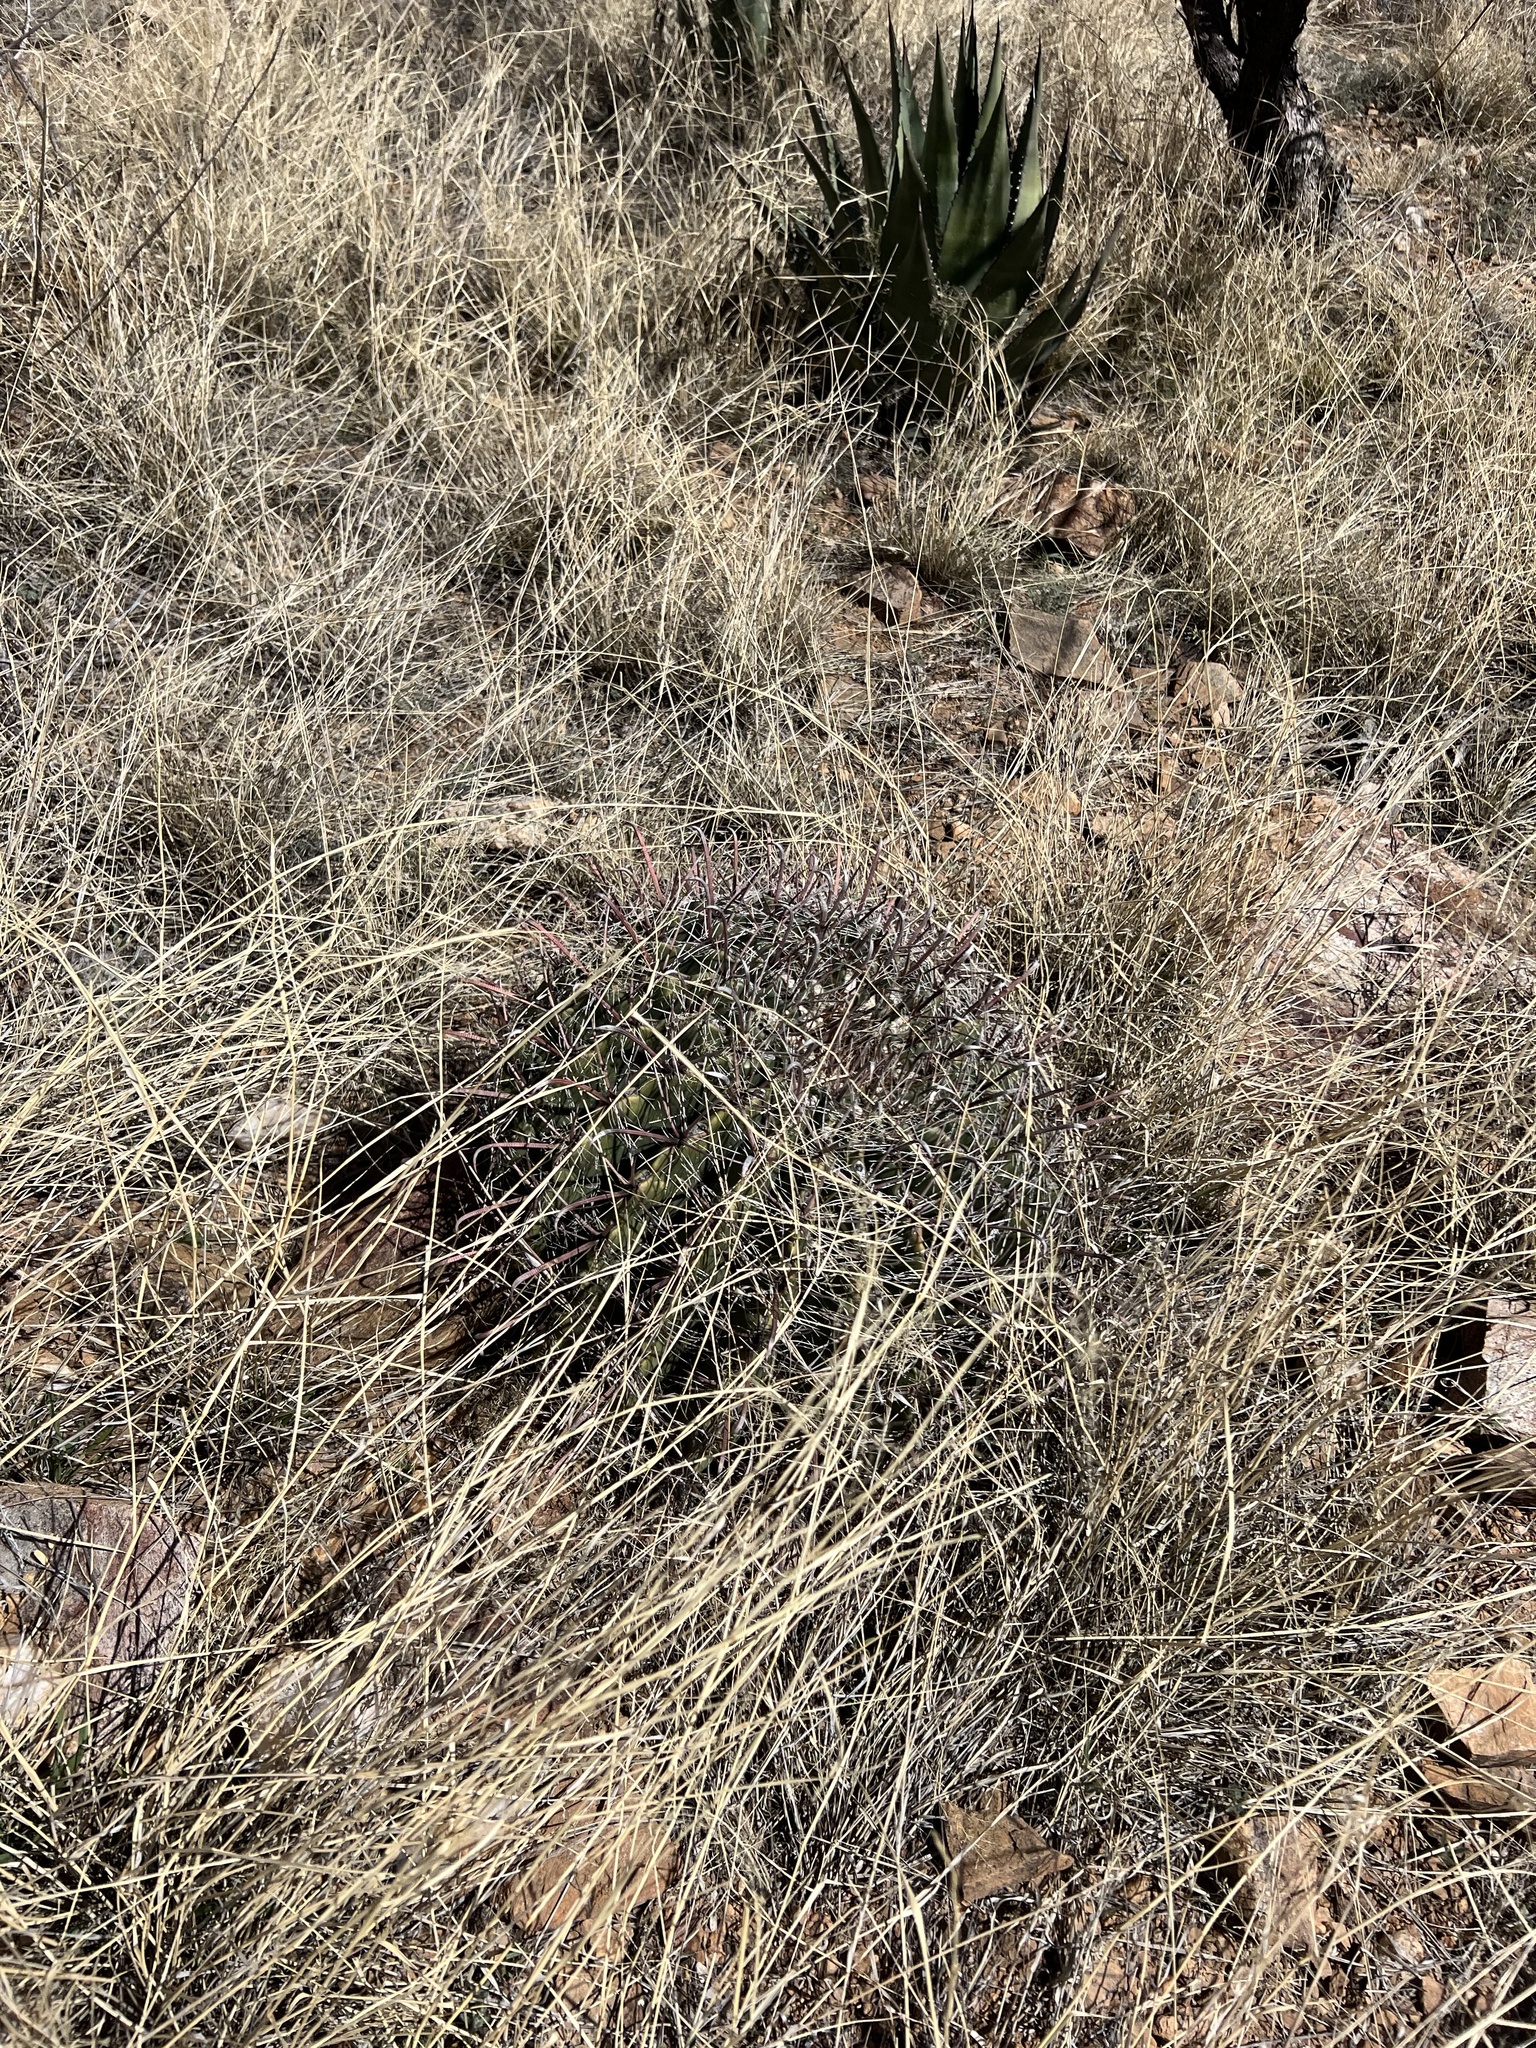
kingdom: Plantae
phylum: Tracheophyta
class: Magnoliopsida
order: Caryophyllales
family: Cactaceae
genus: Ferocactus
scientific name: Ferocactus wislizeni
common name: Candy barrel cactus
